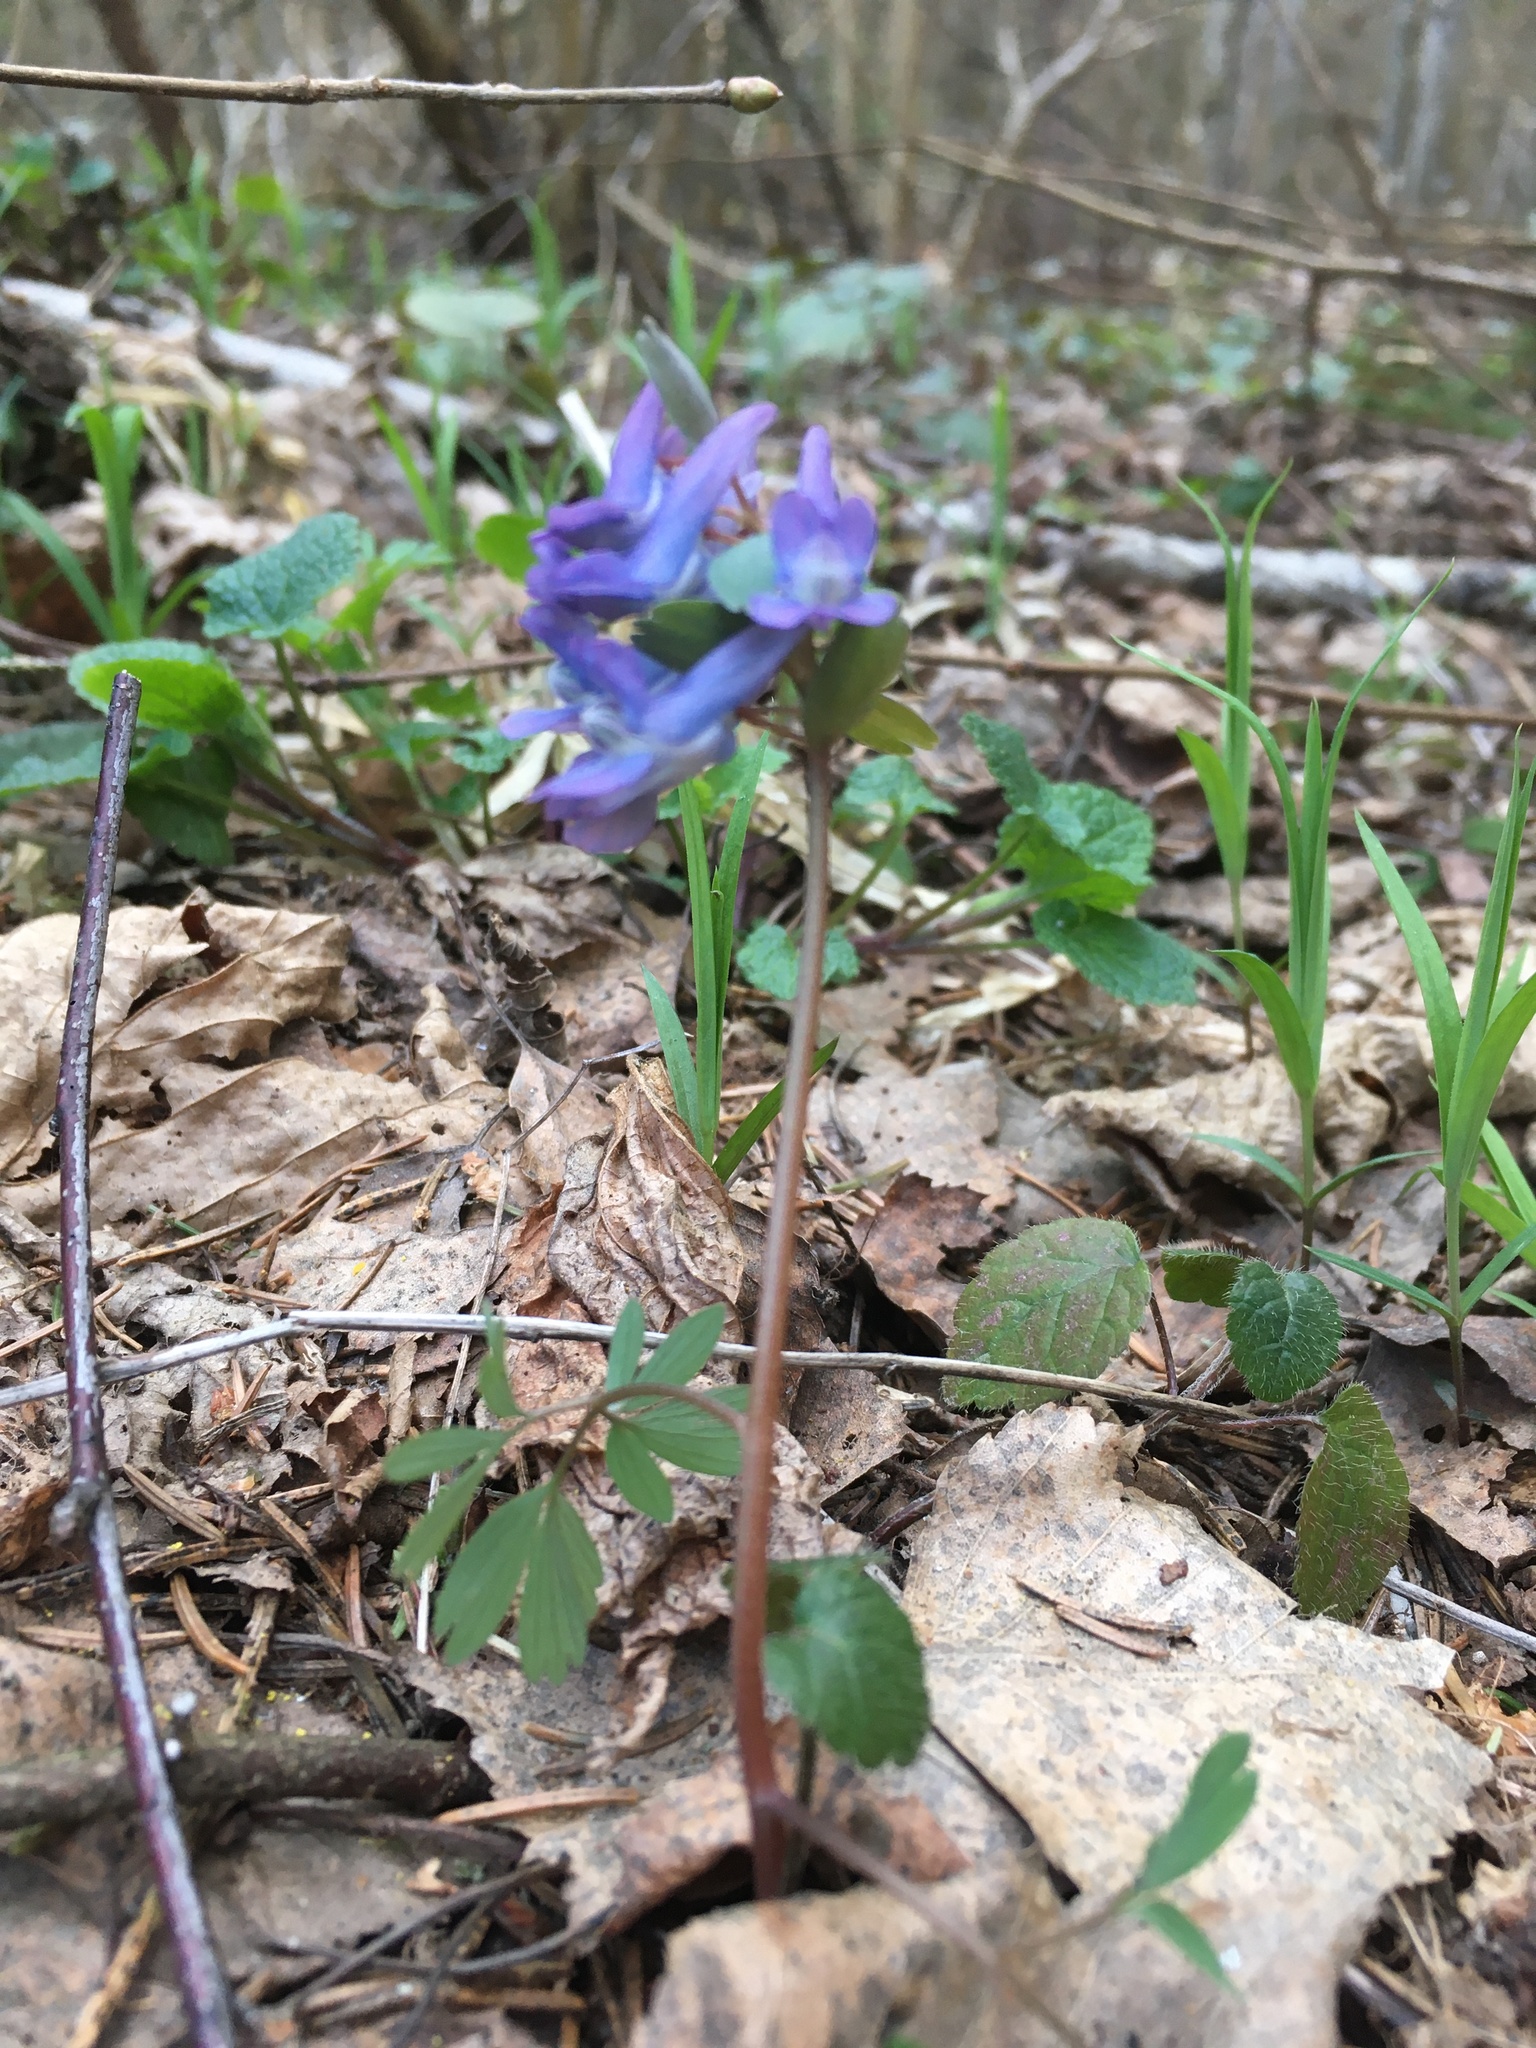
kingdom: Plantae
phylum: Tracheophyta
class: Magnoliopsida
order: Ranunculales
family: Papaveraceae
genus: Corydalis
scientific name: Corydalis solida
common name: Bird-in-a-bush
